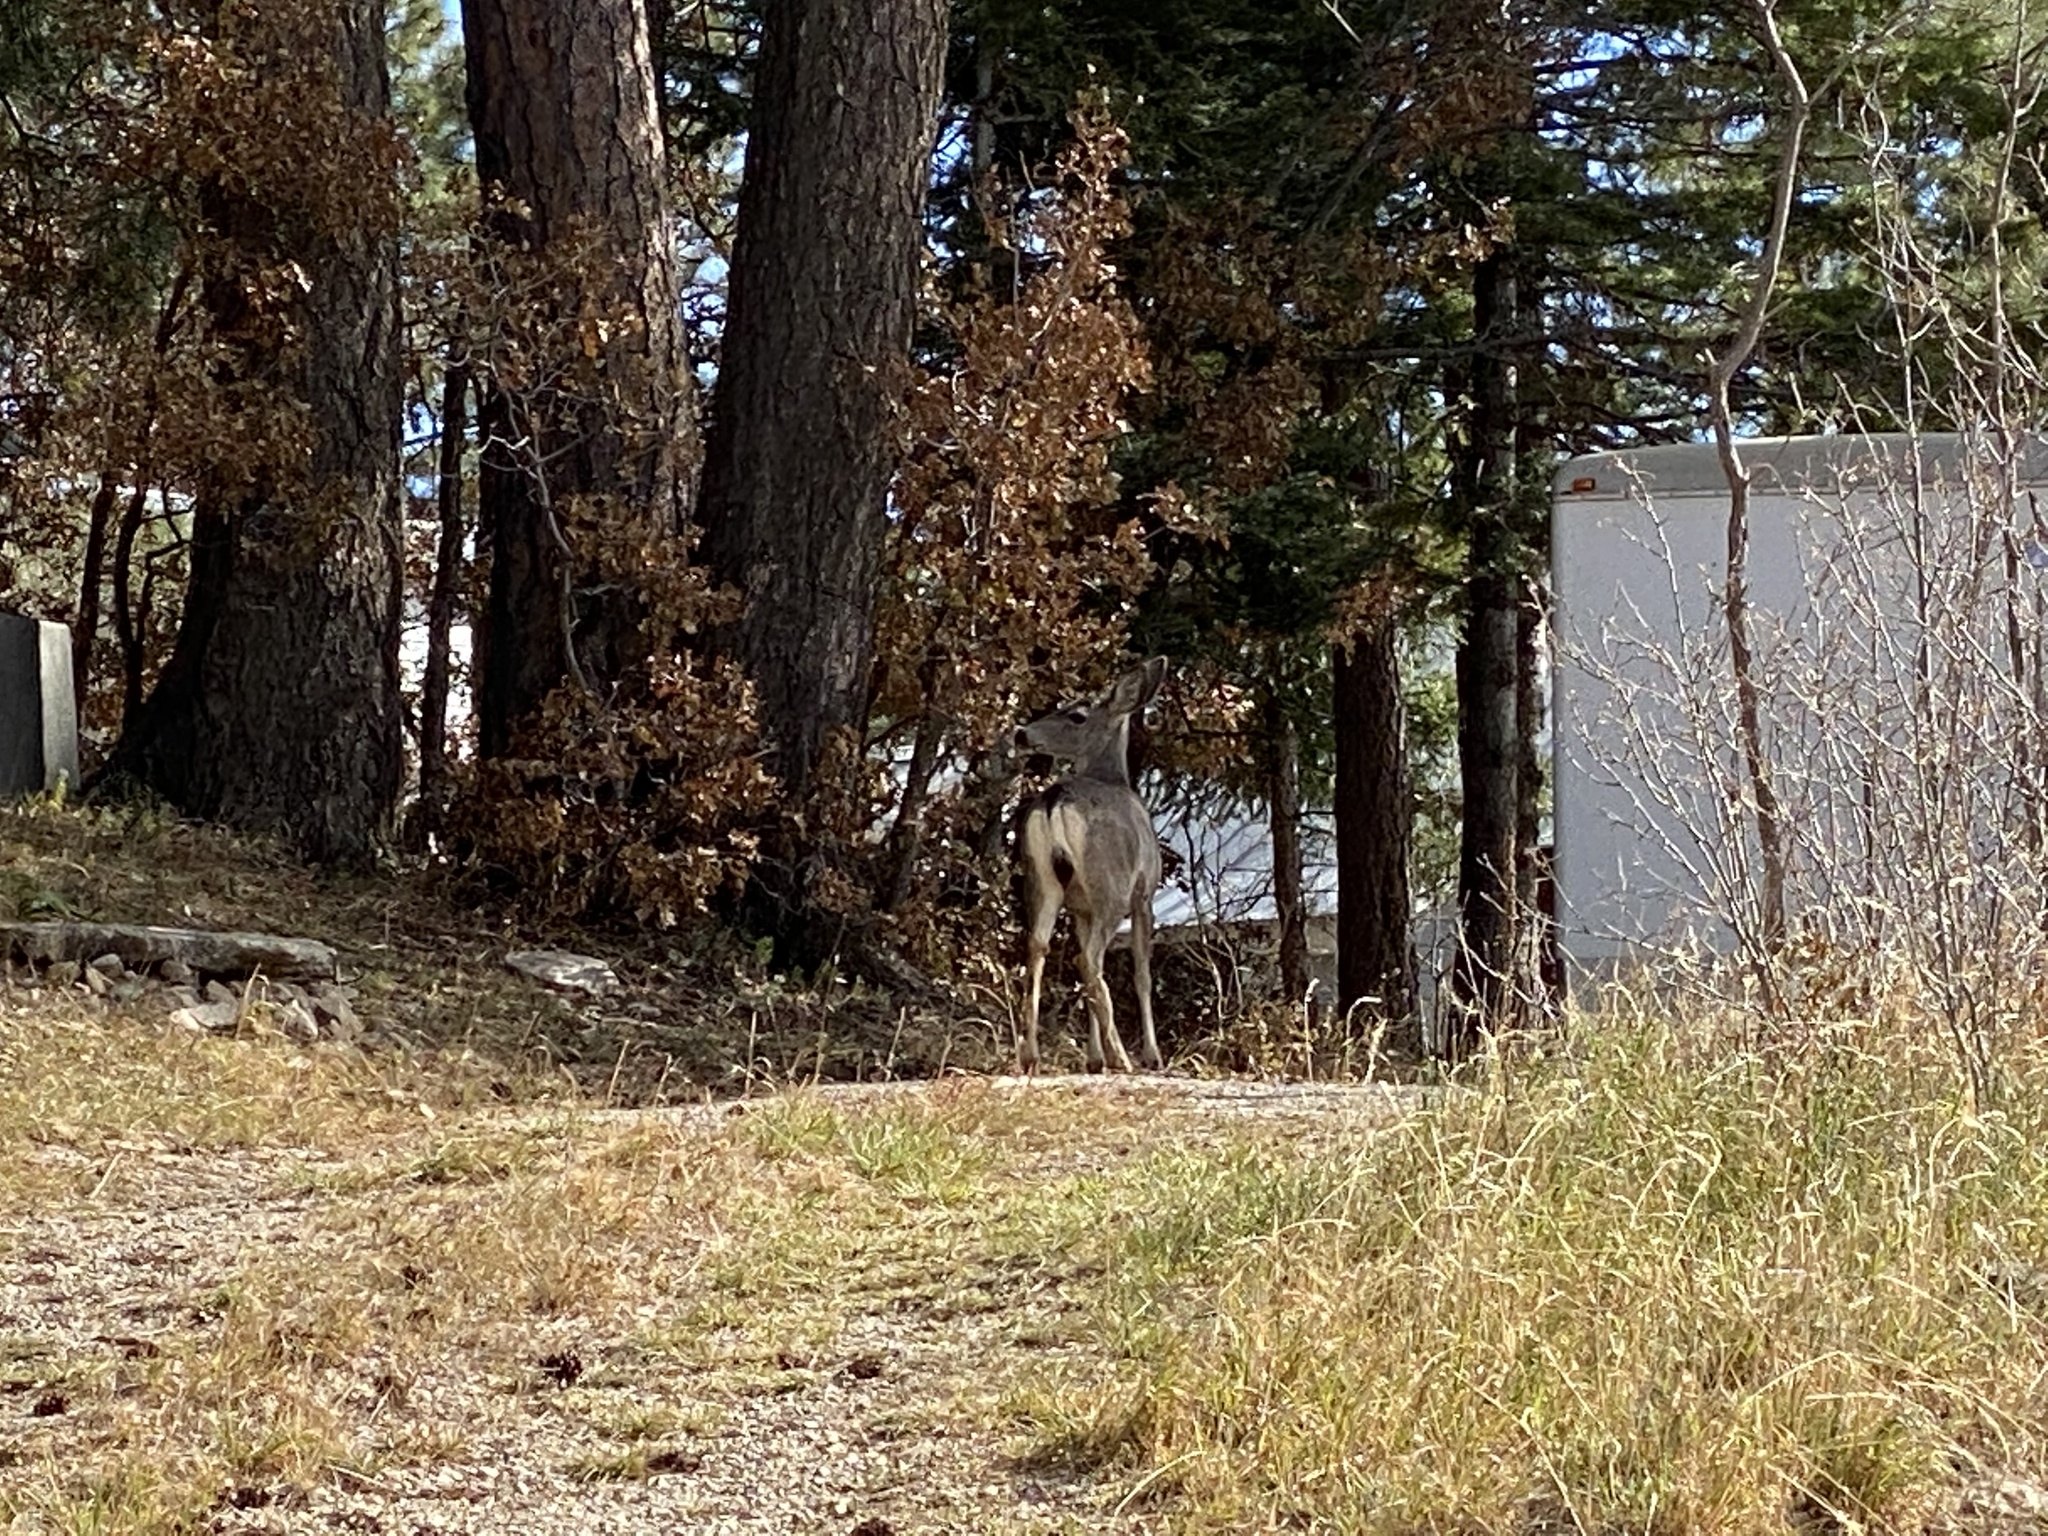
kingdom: Animalia
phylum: Chordata
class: Mammalia
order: Artiodactyla
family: Cervidae
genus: Odocoileus
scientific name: Odocoileus hemionus
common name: Mule deer
